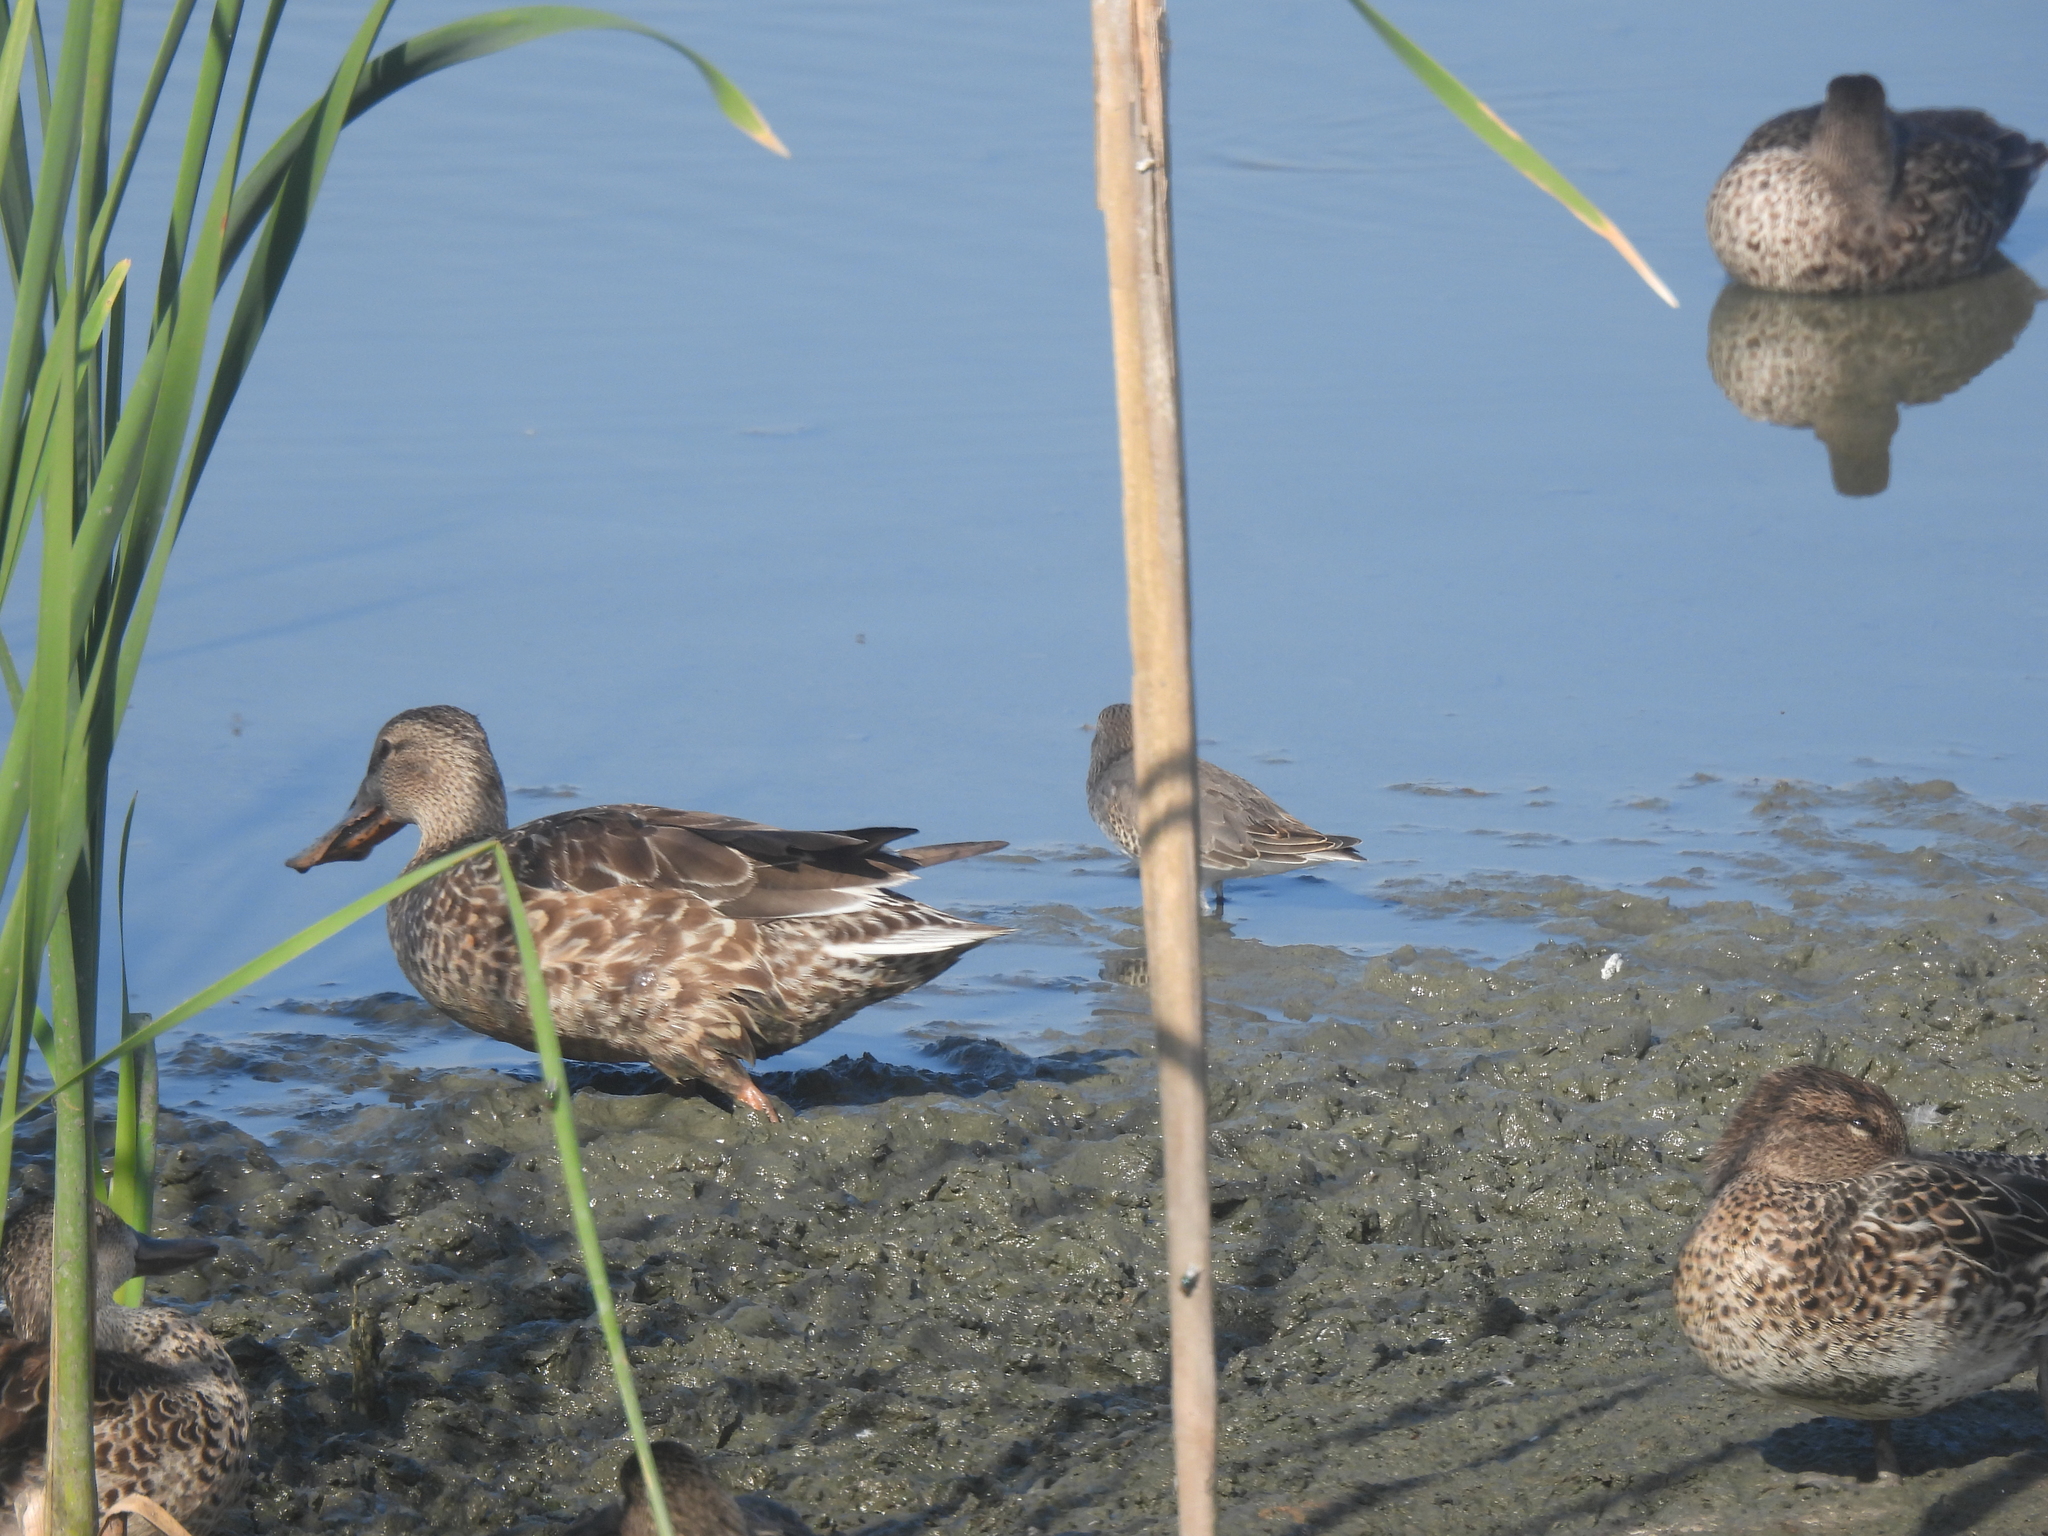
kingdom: Animalia
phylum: Chordata
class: Aves
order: Anseriformes
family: Anatidae
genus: Spatula
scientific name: Spatula clypeata
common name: Northern shoveler
